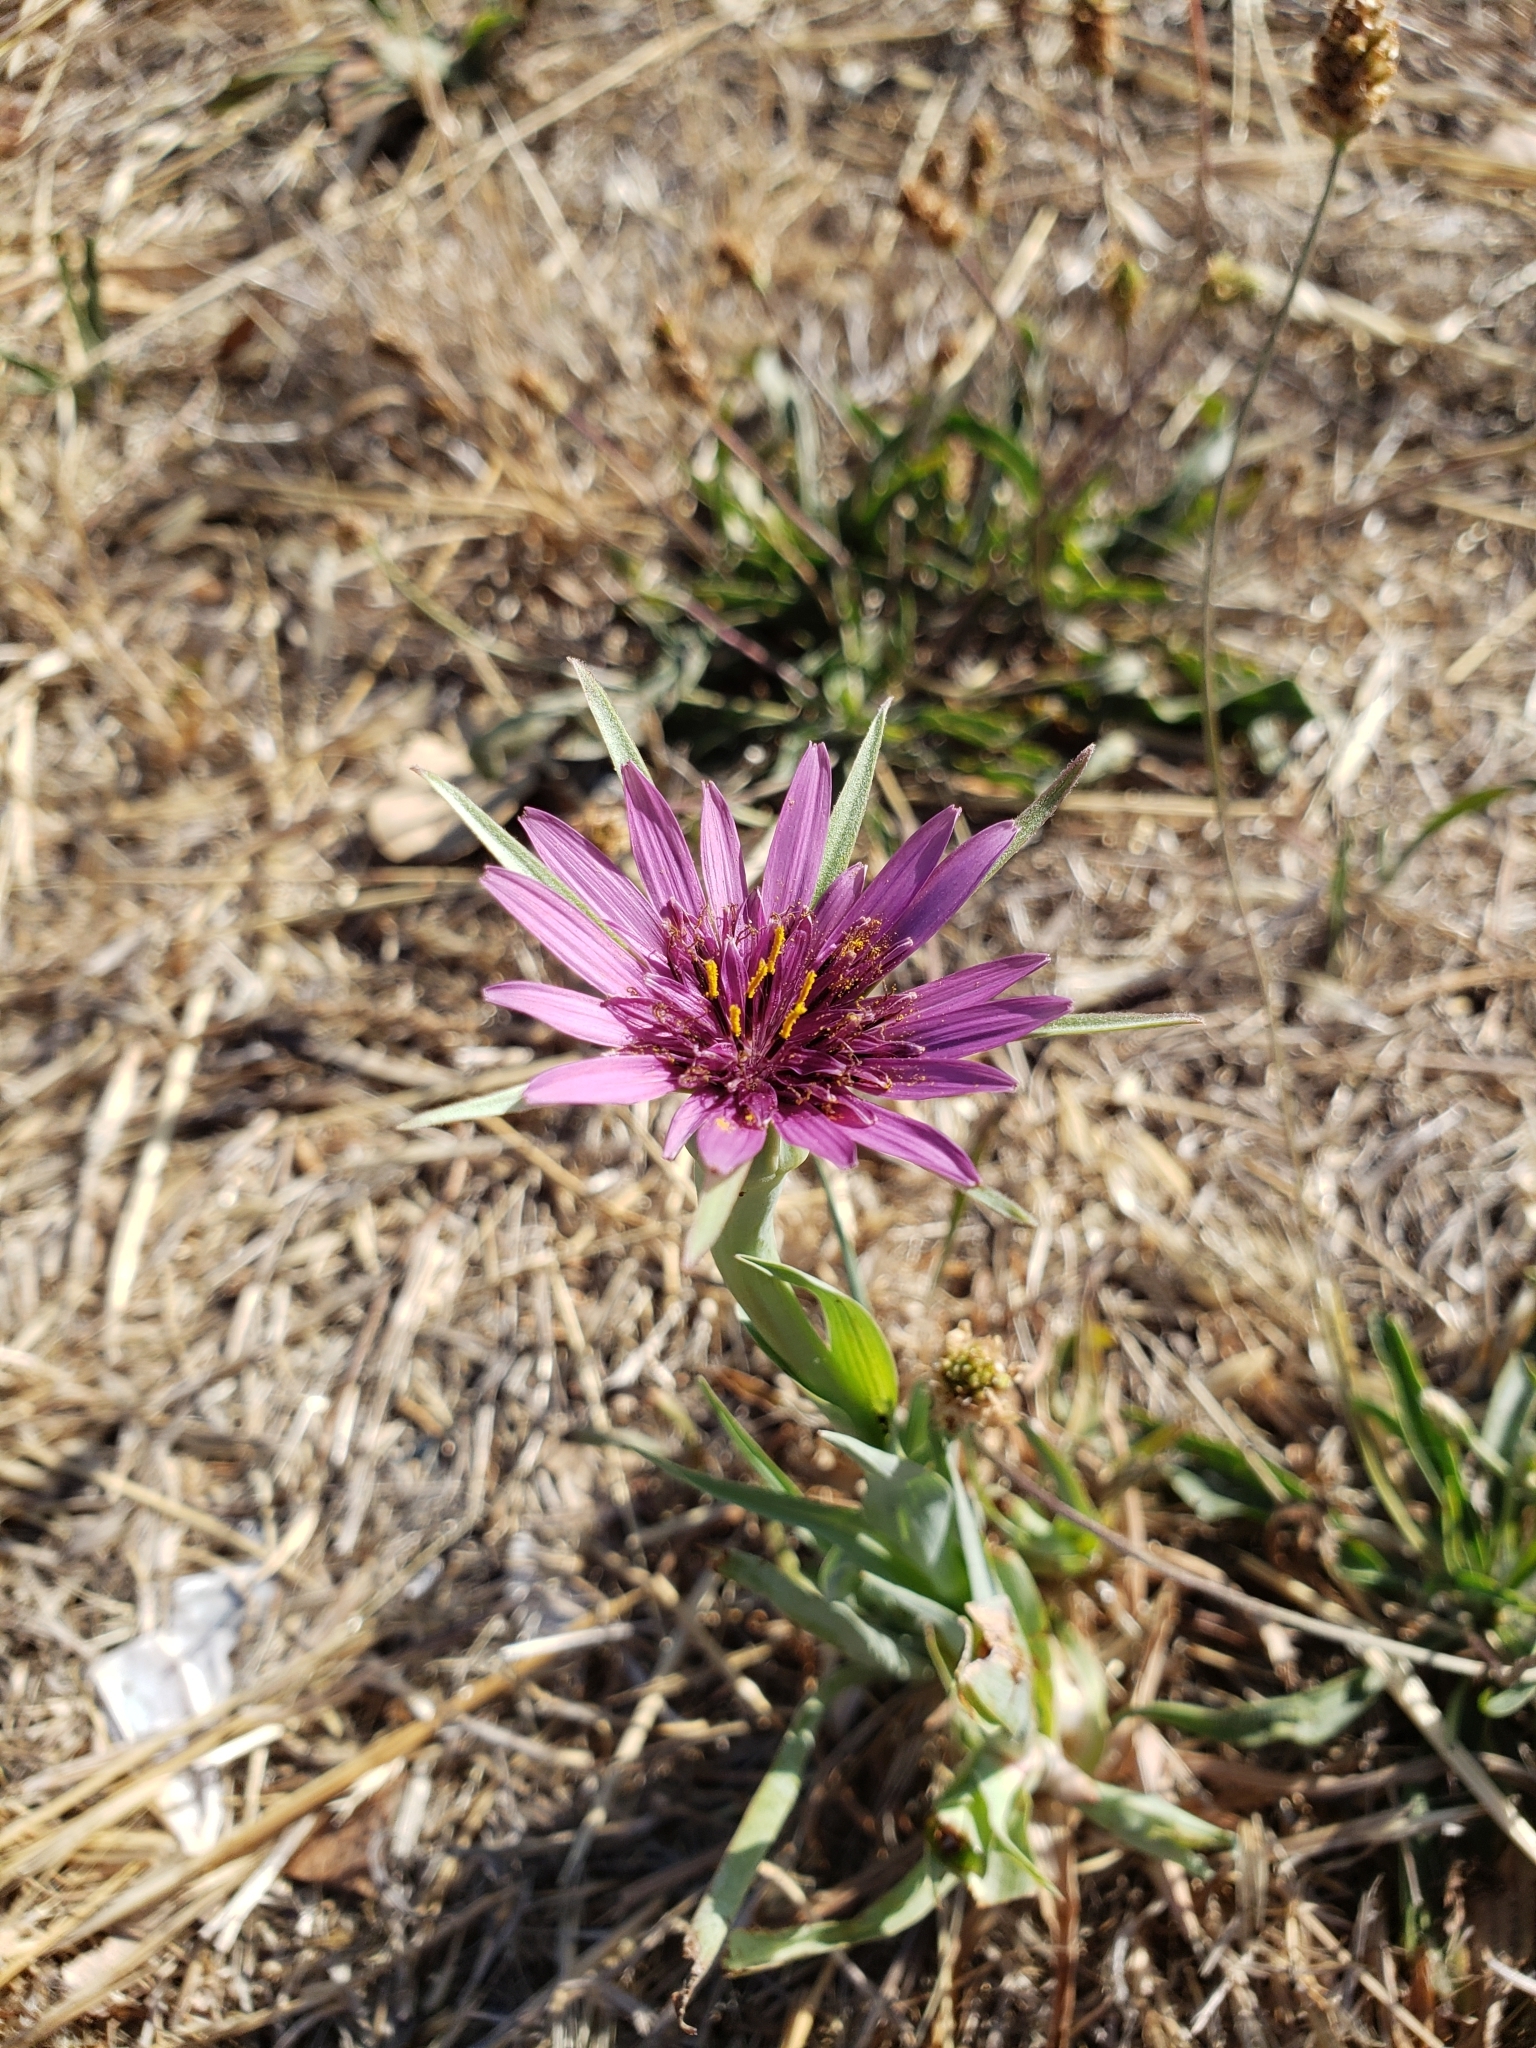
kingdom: Plantae
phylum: Tracheophyta
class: Magnoliopsida
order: Asterales
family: Asteraceae
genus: Tragopogon
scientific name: Tragopogon porrifolius
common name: Salsify
